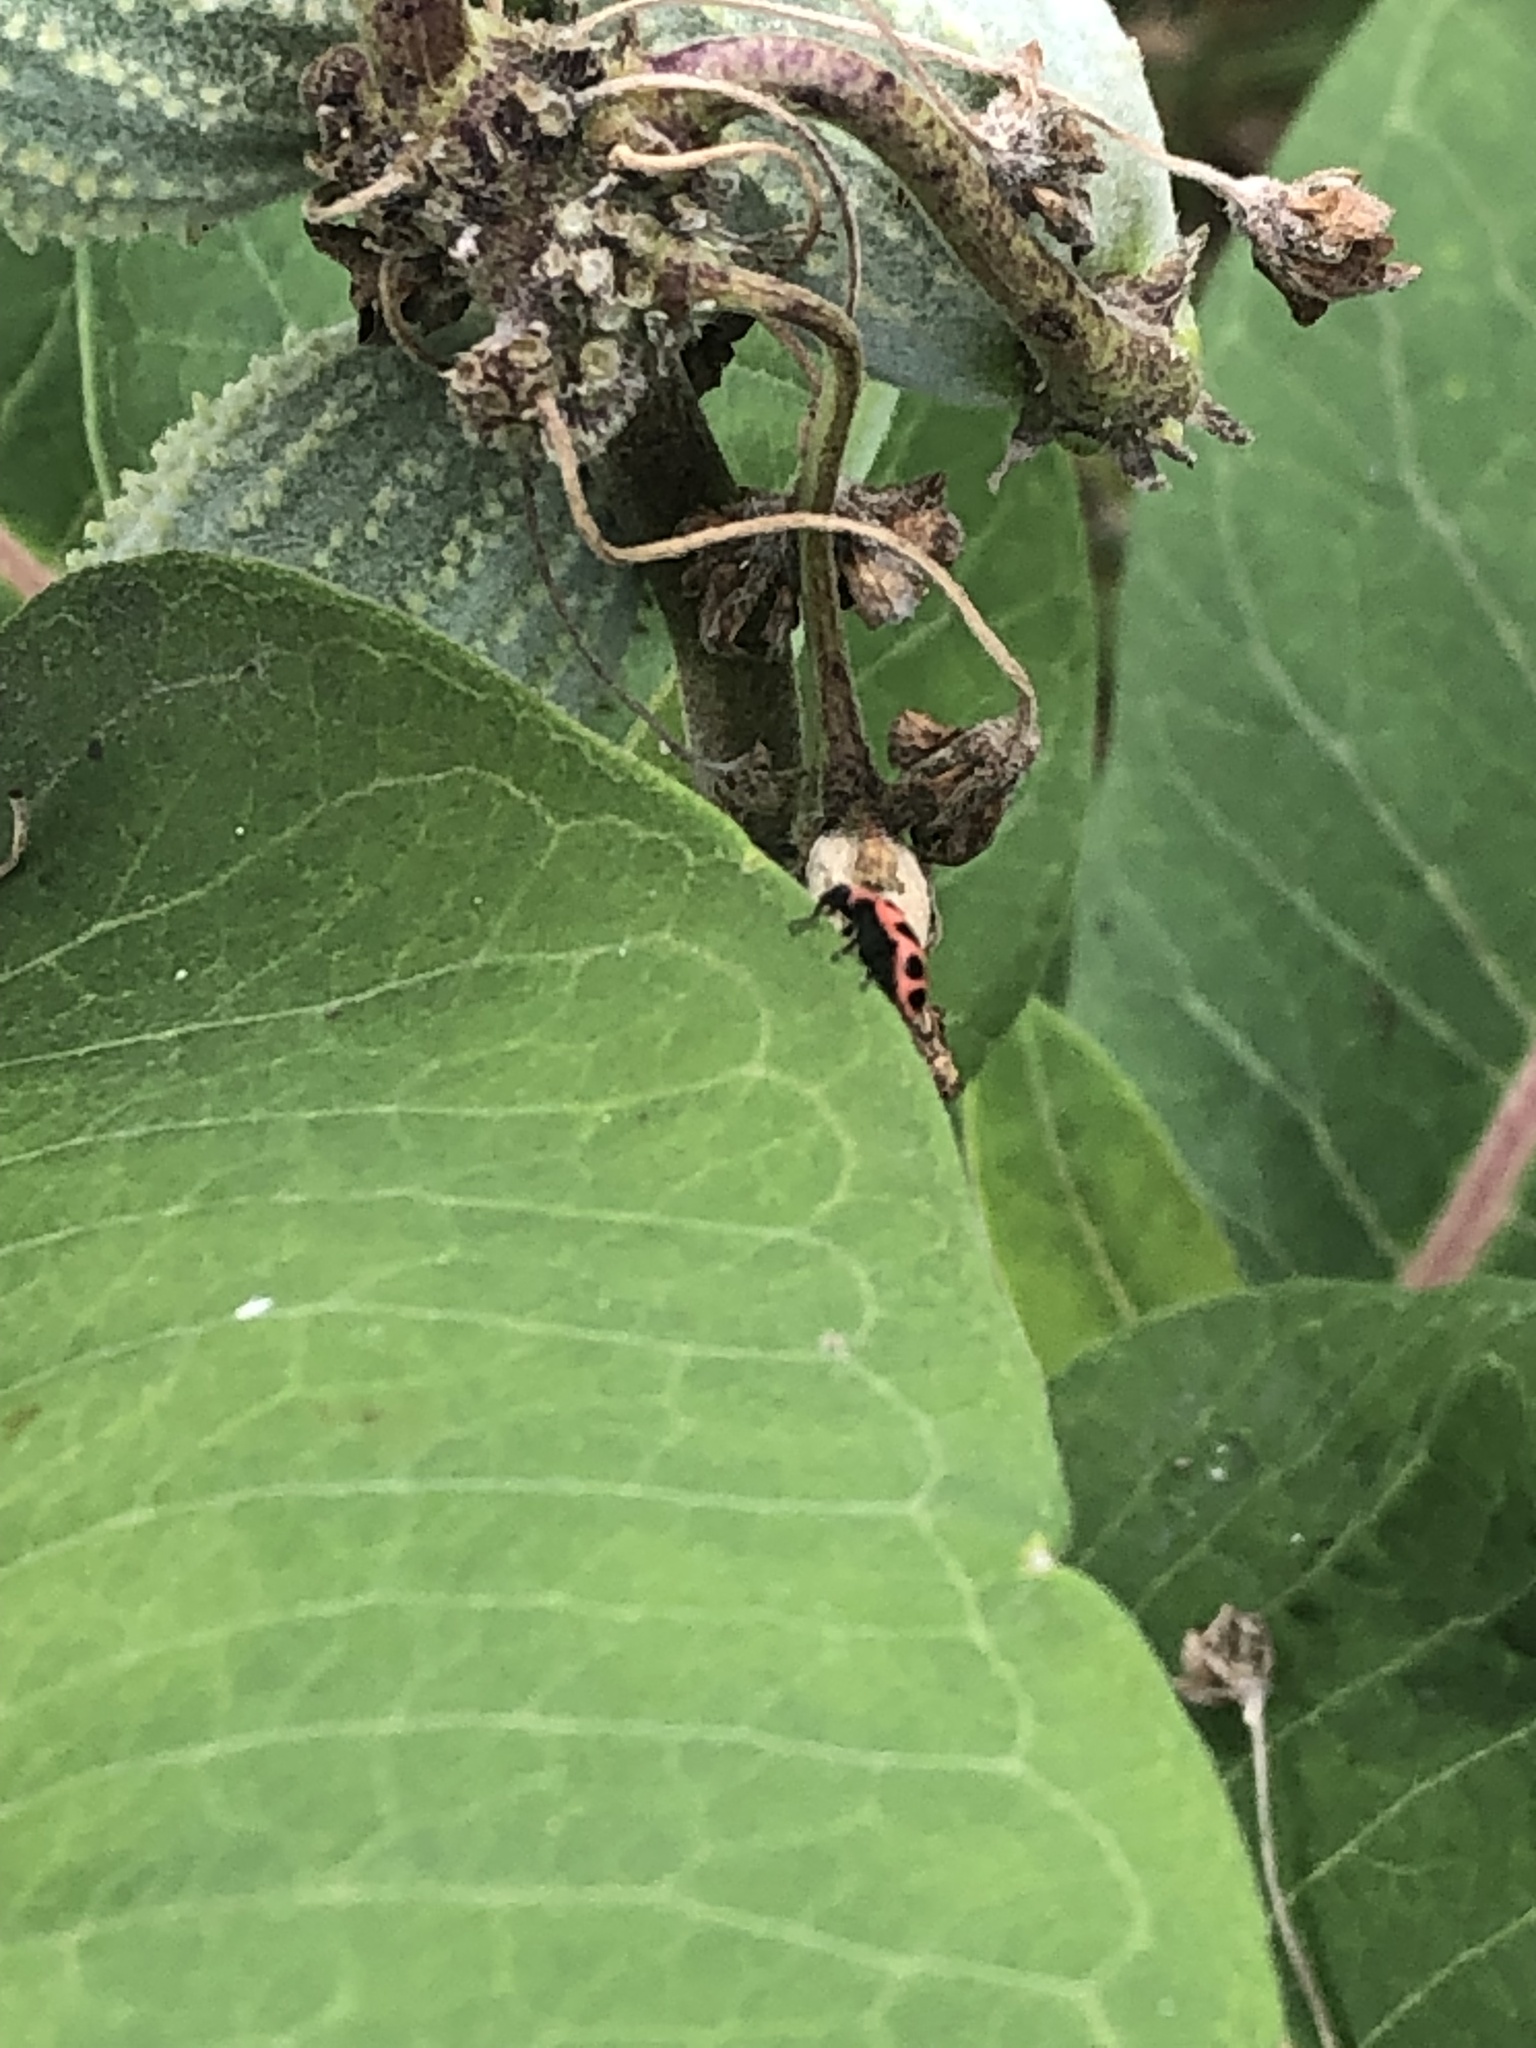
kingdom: Animalia
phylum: Arthropoda
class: Insecta
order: Coleoptera
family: Coccinellidae
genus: Coleomegilla
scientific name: Coleomegilla maculata
